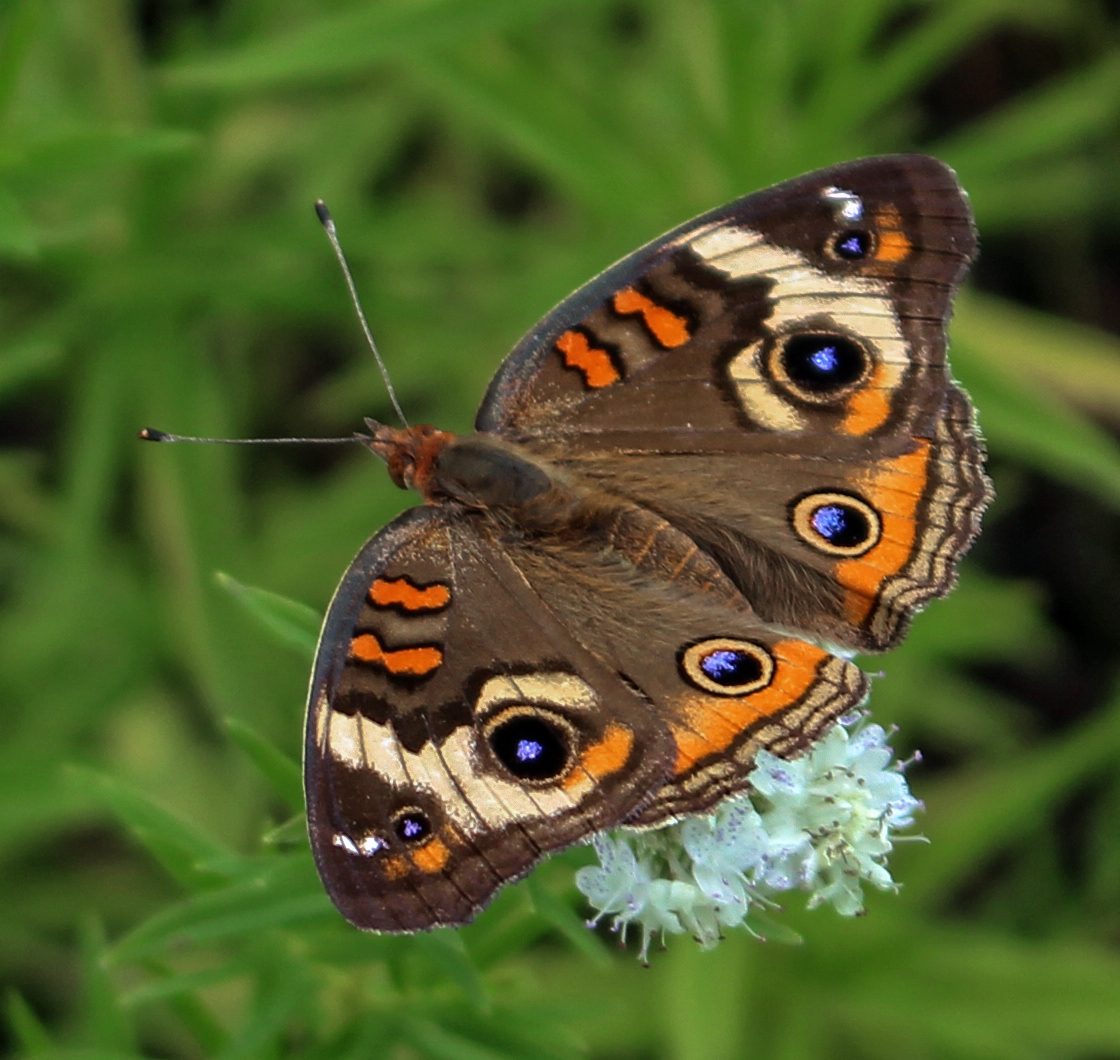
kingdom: Animalia
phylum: Arthropoda
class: Insecta
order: Lepidoptera
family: Nymphalidae
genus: Junonia
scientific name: Junonia coenia
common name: Common buckeye
